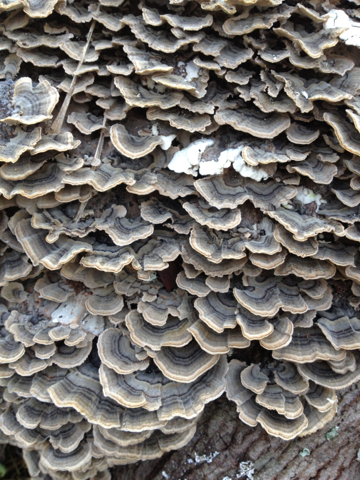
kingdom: Fungi
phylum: Basidiomycota
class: Agaricomycetes
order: Polyporales
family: Polyporaceae
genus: Trametes
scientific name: Trametes versicolor
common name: Turkeytail
